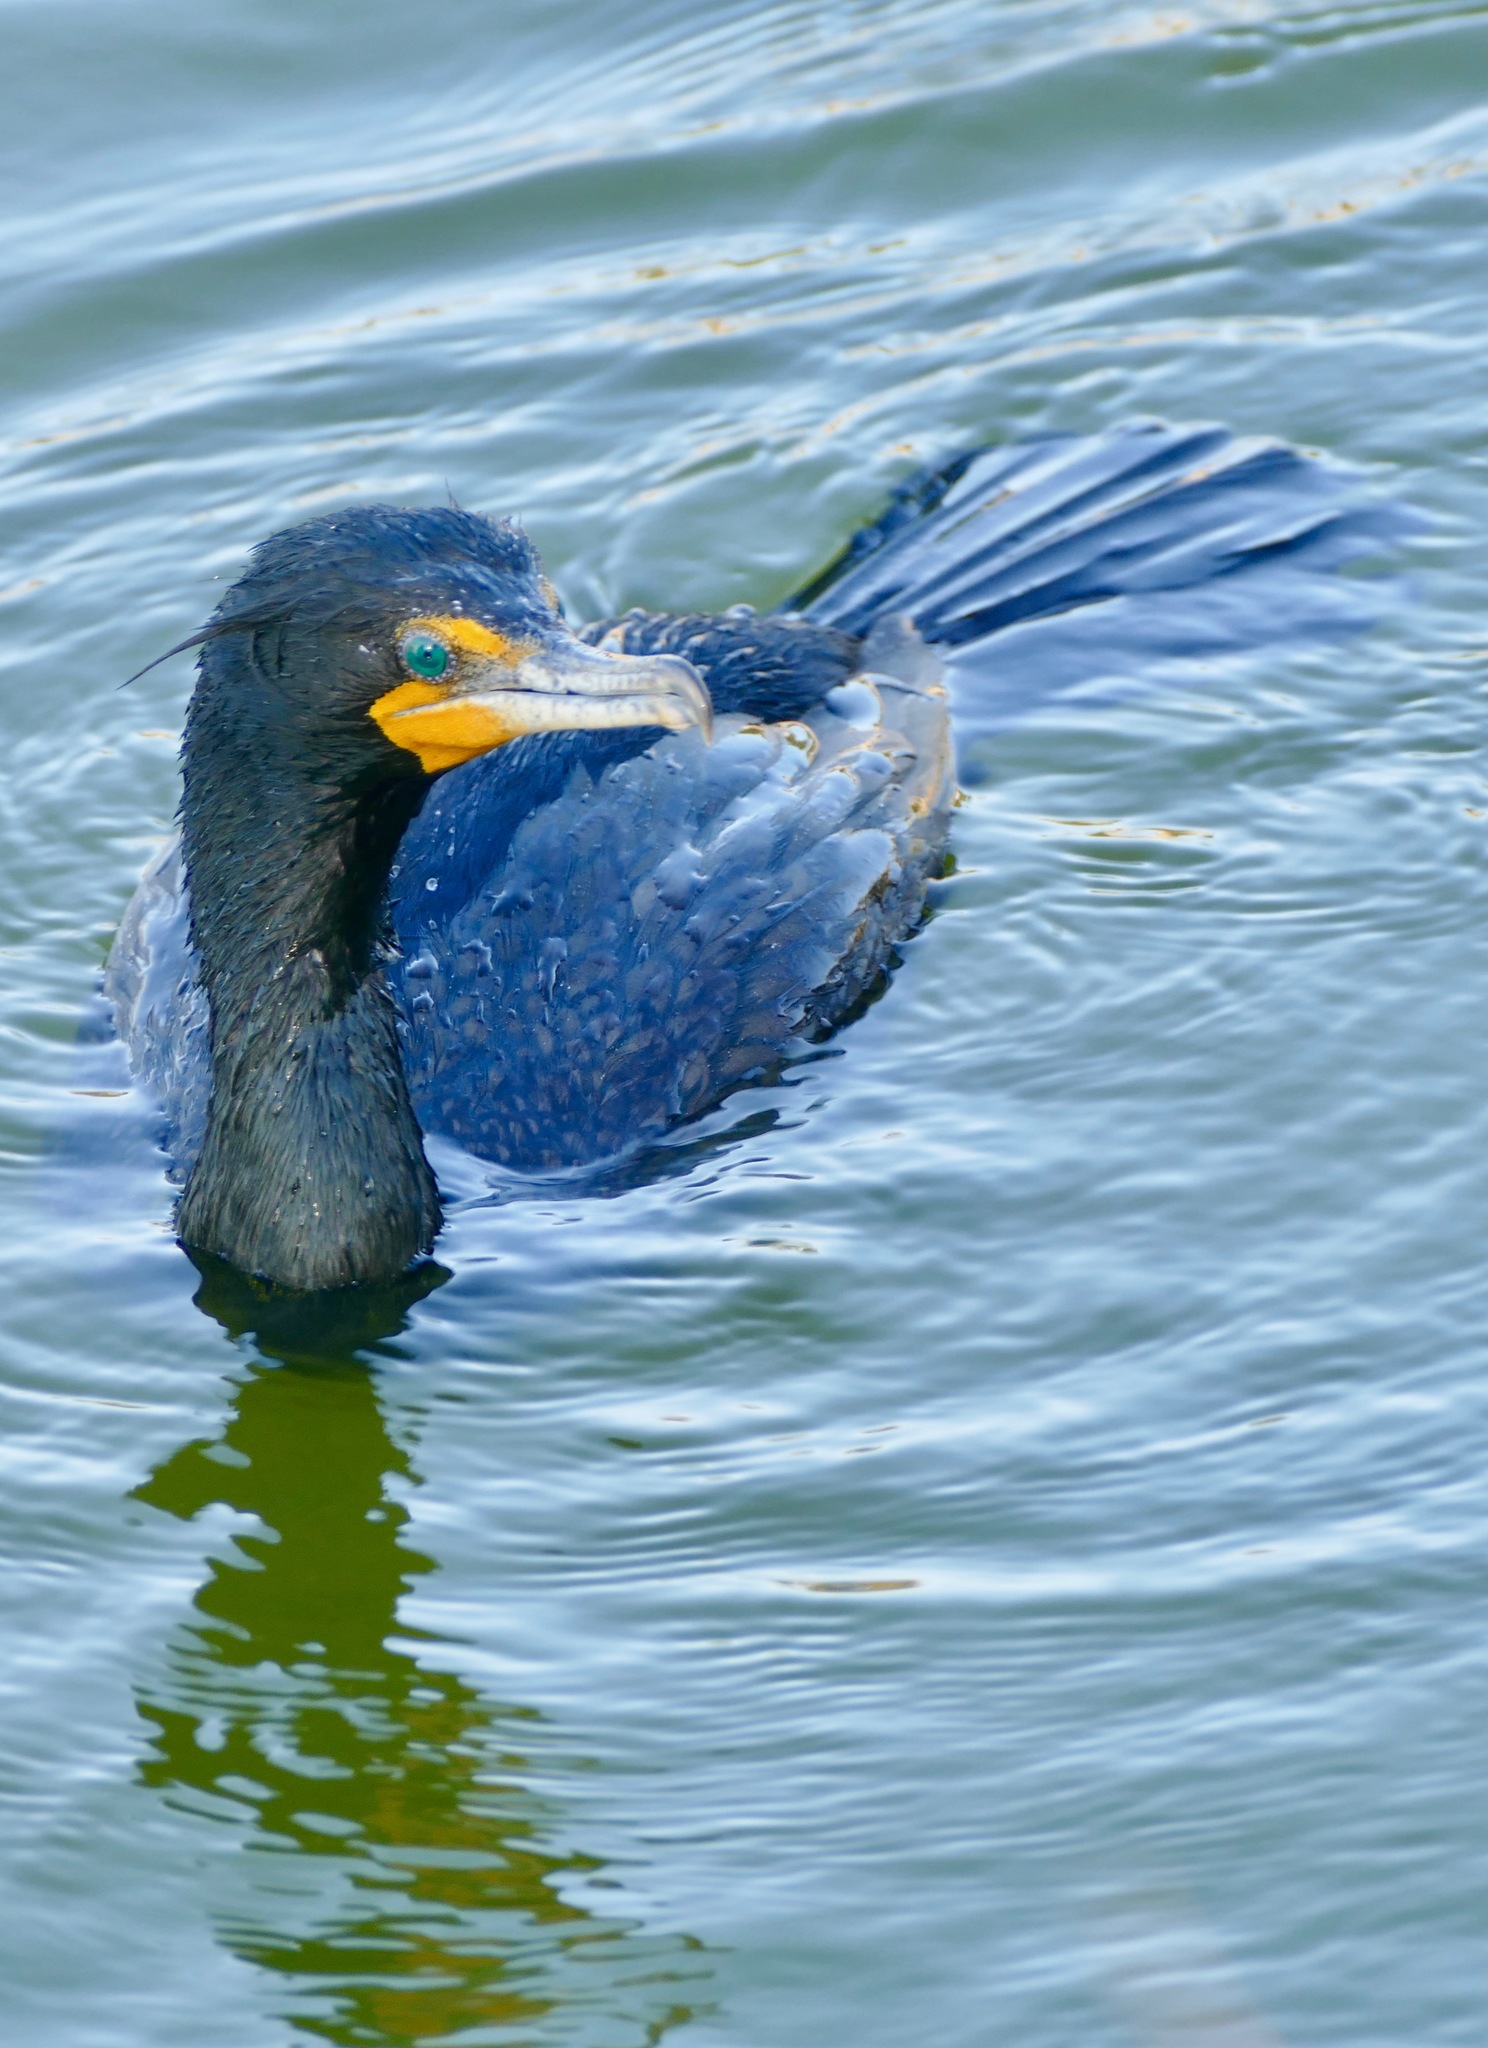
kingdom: Animalia
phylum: Chordata
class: Aves
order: Suliformes
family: Phalacrocoracidae
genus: Phalacrocorax
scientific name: Phalacrocorax auritus
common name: Double-crested cormorant
